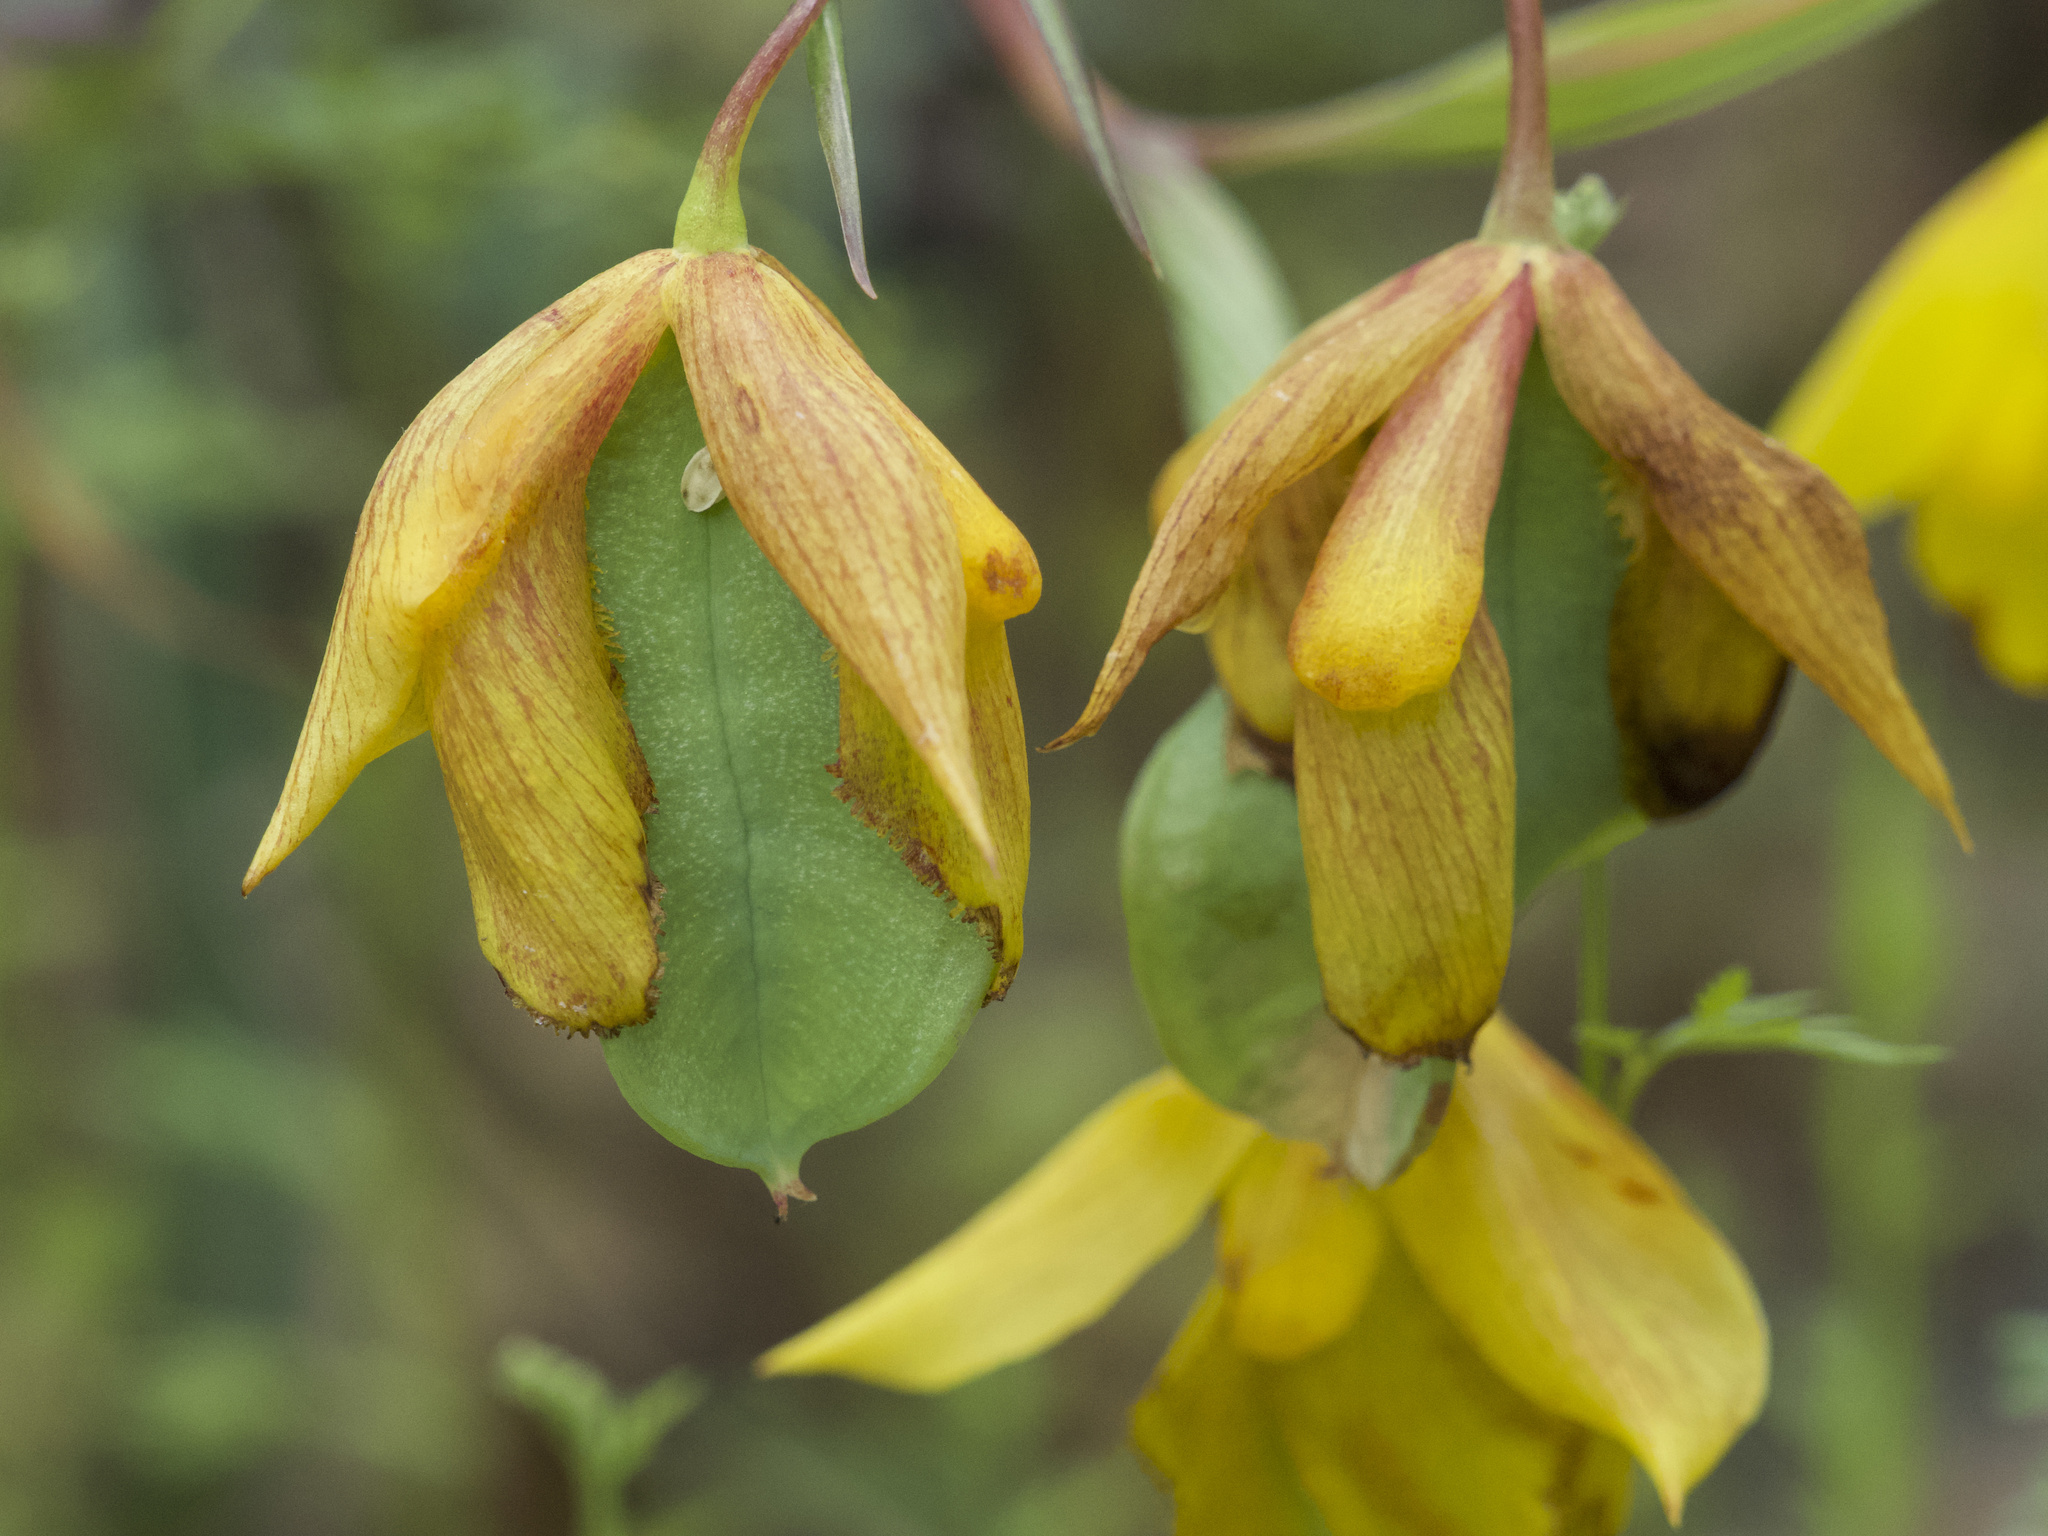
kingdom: Plantae
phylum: Tracheophyta
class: Liliopsida
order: Liliales
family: Liliaceae
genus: Calochortus
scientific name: Calochortus amabilis
